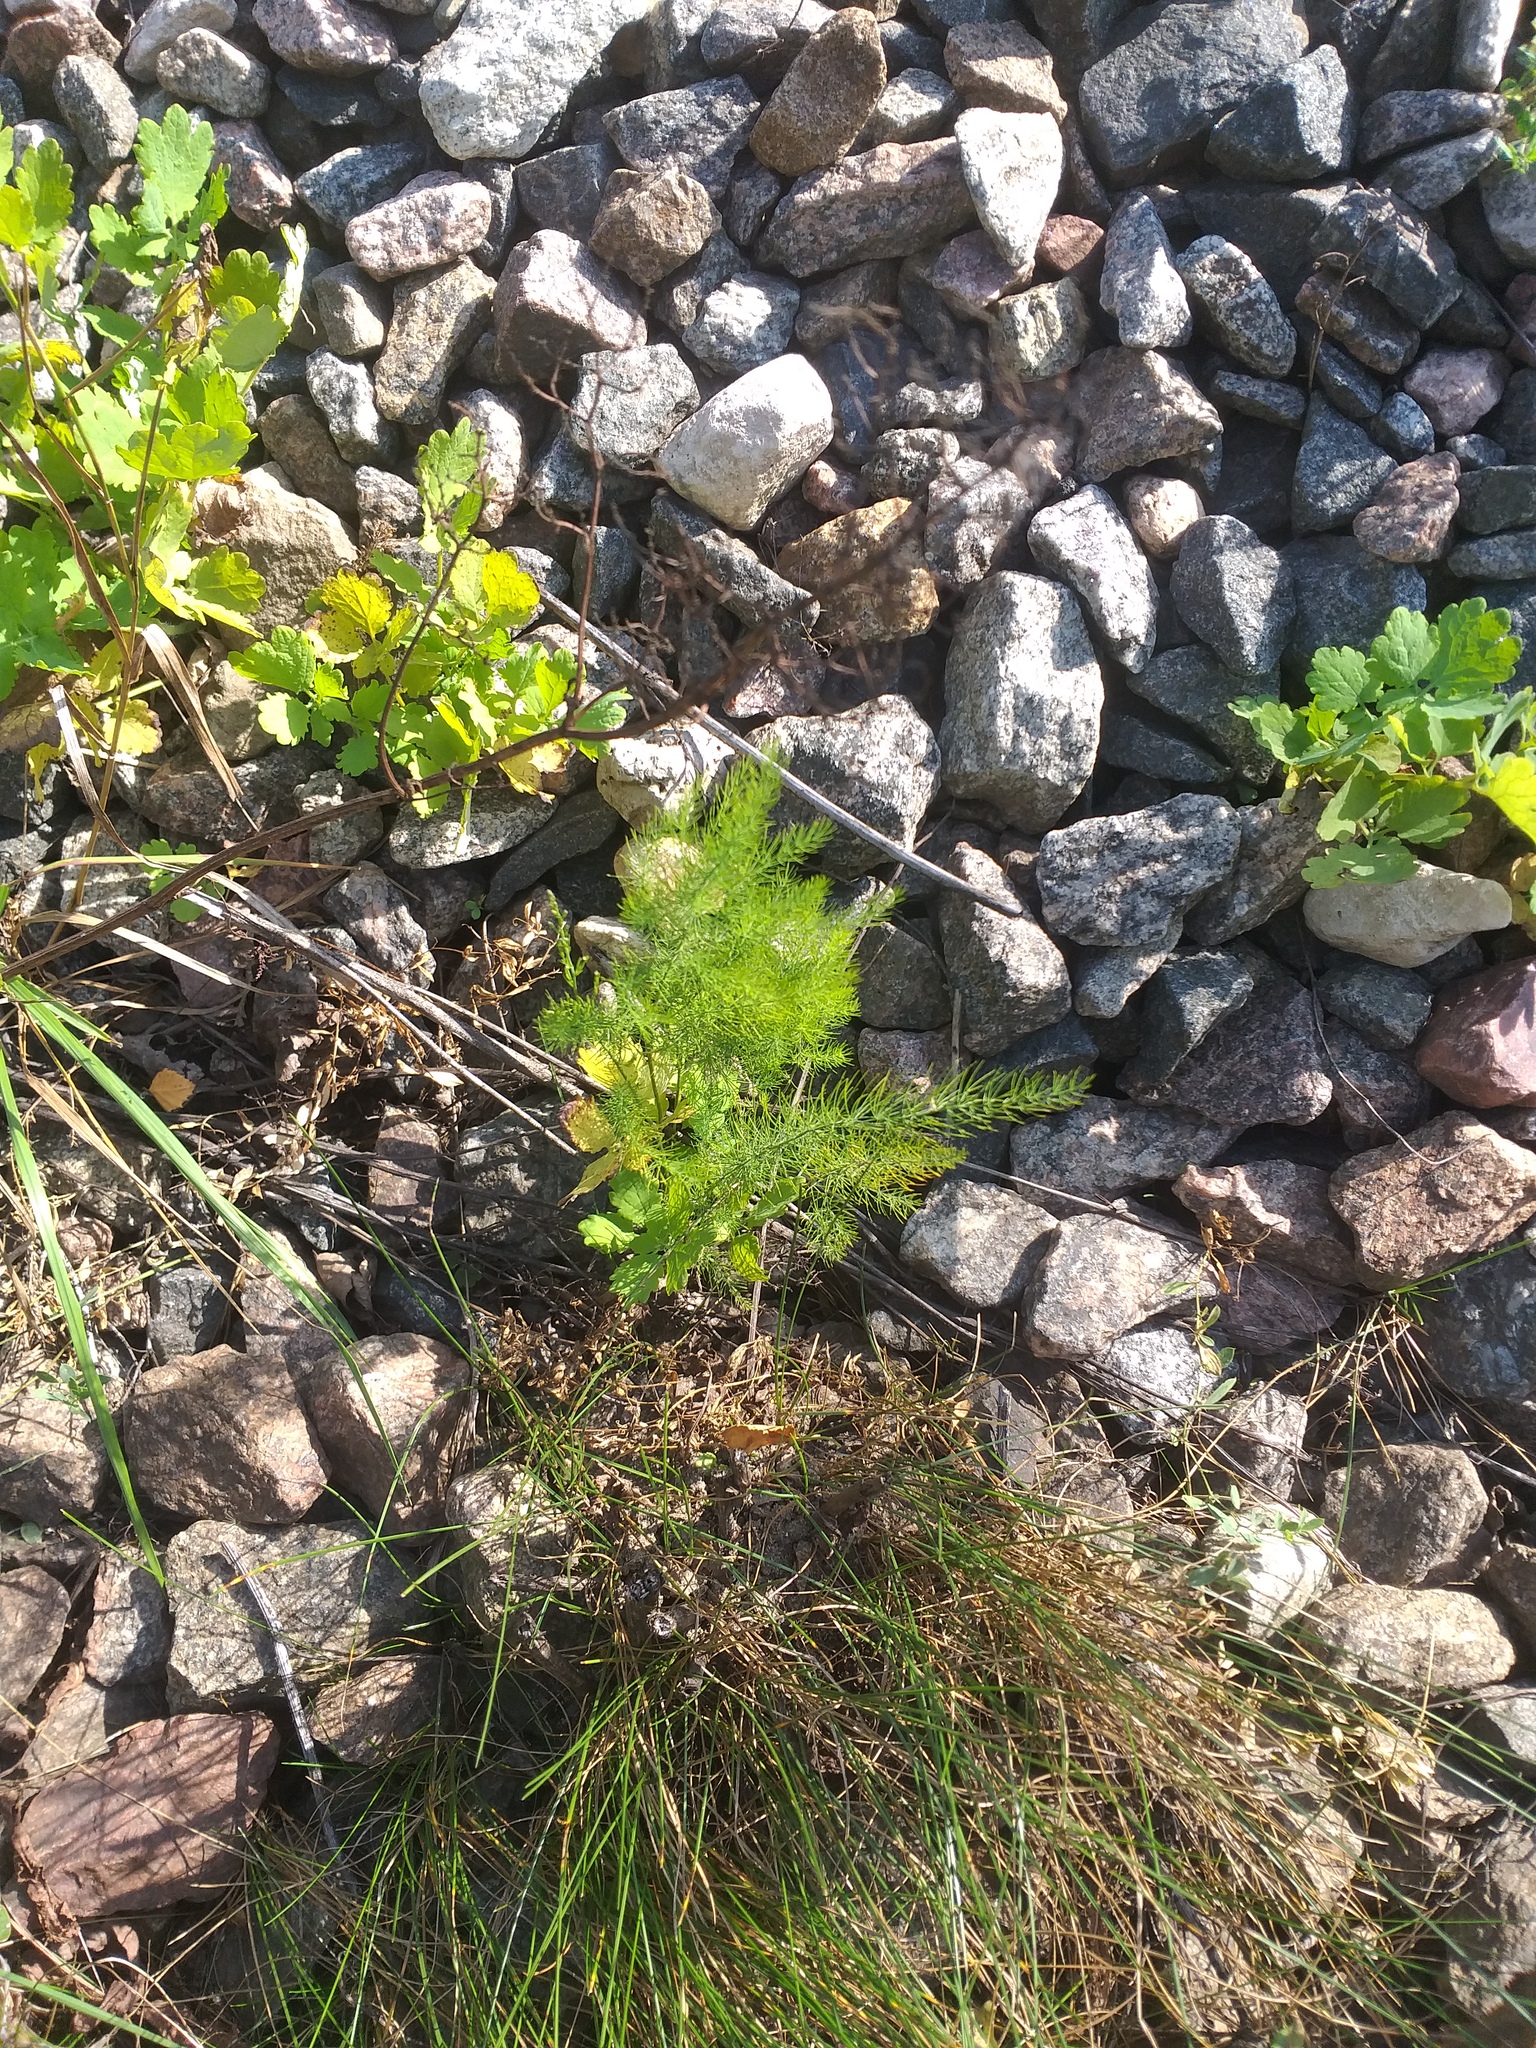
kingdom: Plantae
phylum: Tracheophyta
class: Liliopsida
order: Asparagales
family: Asparagaceae
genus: Asparagus
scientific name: Asparagus officinalis
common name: Garden asparagus
